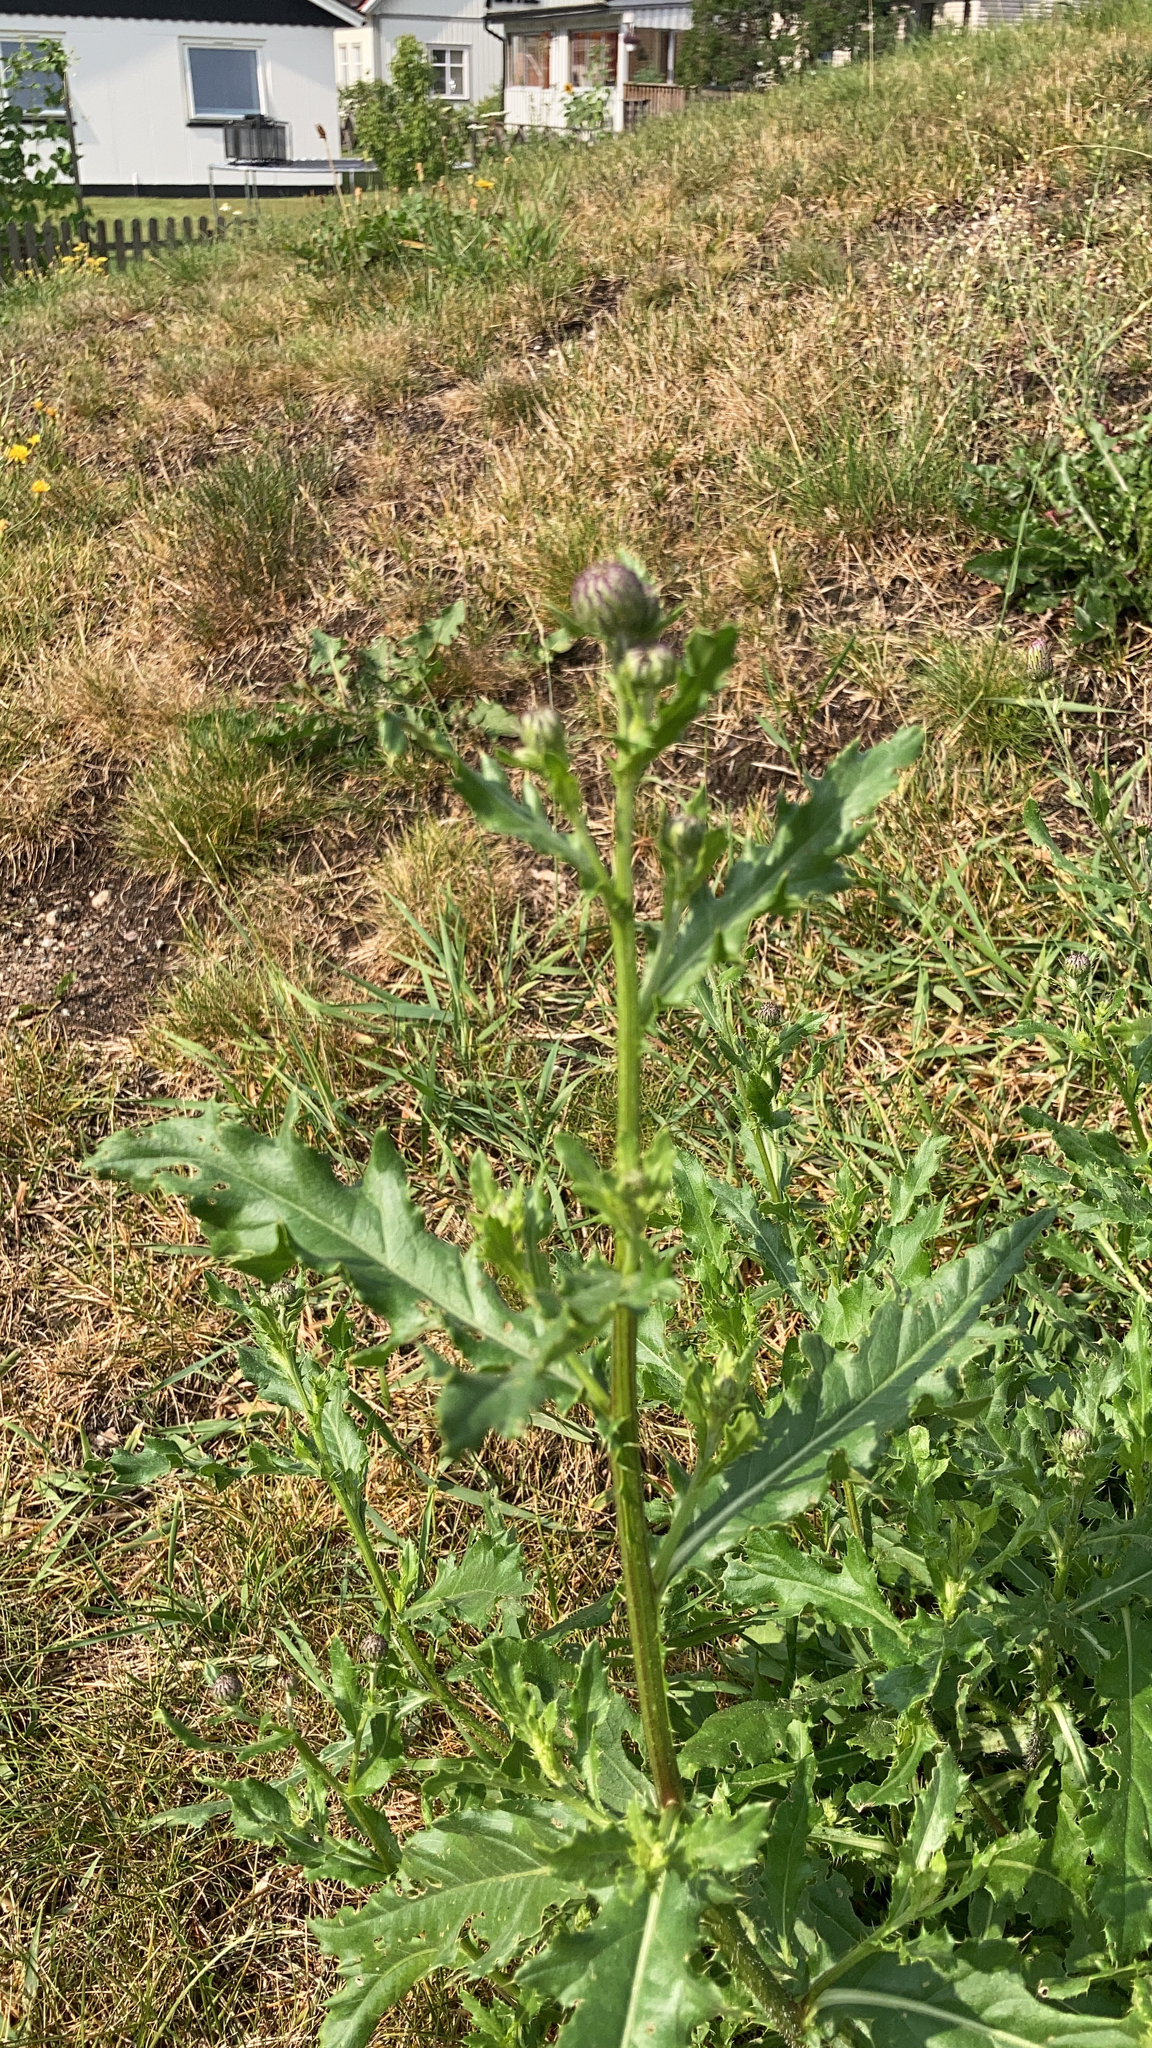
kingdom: Plantae
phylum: Tracheophyta
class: Magnoliopsida
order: Asterales
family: Asteraceae
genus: Cirsium
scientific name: Cirsium arvense
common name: Creeping thistle
